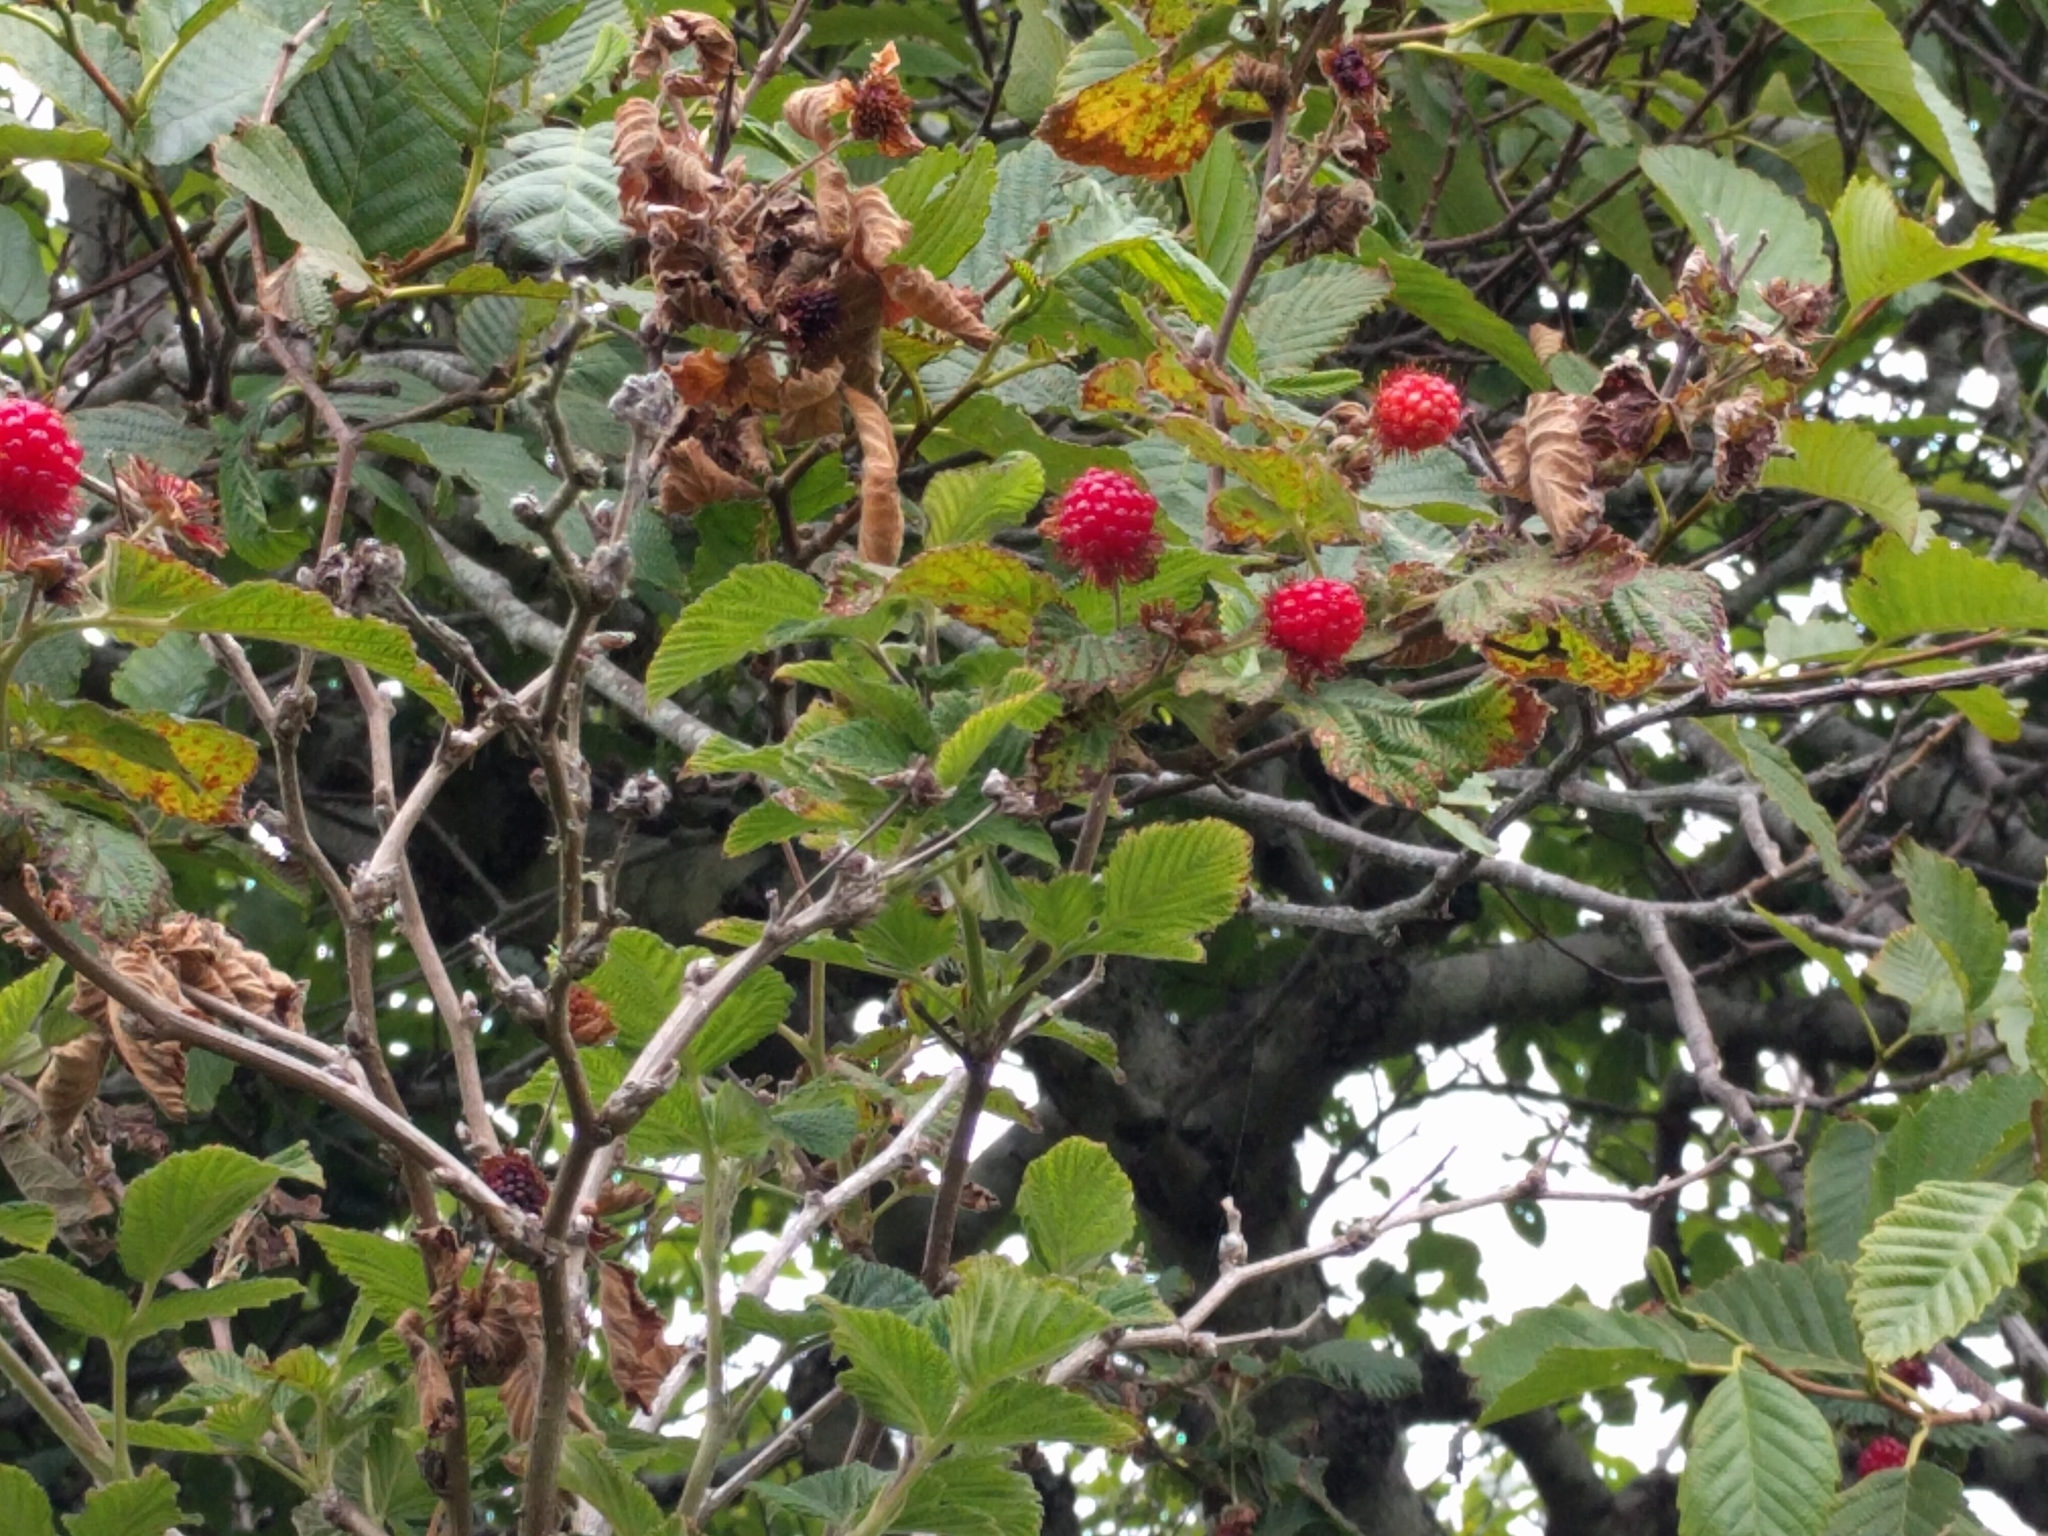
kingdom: Plantae
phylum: Tracheophyta
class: Magnoliopsida
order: Rosales
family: Rosaceae
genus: Rubus
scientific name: Rubus spectabilis
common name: Salmonberry
